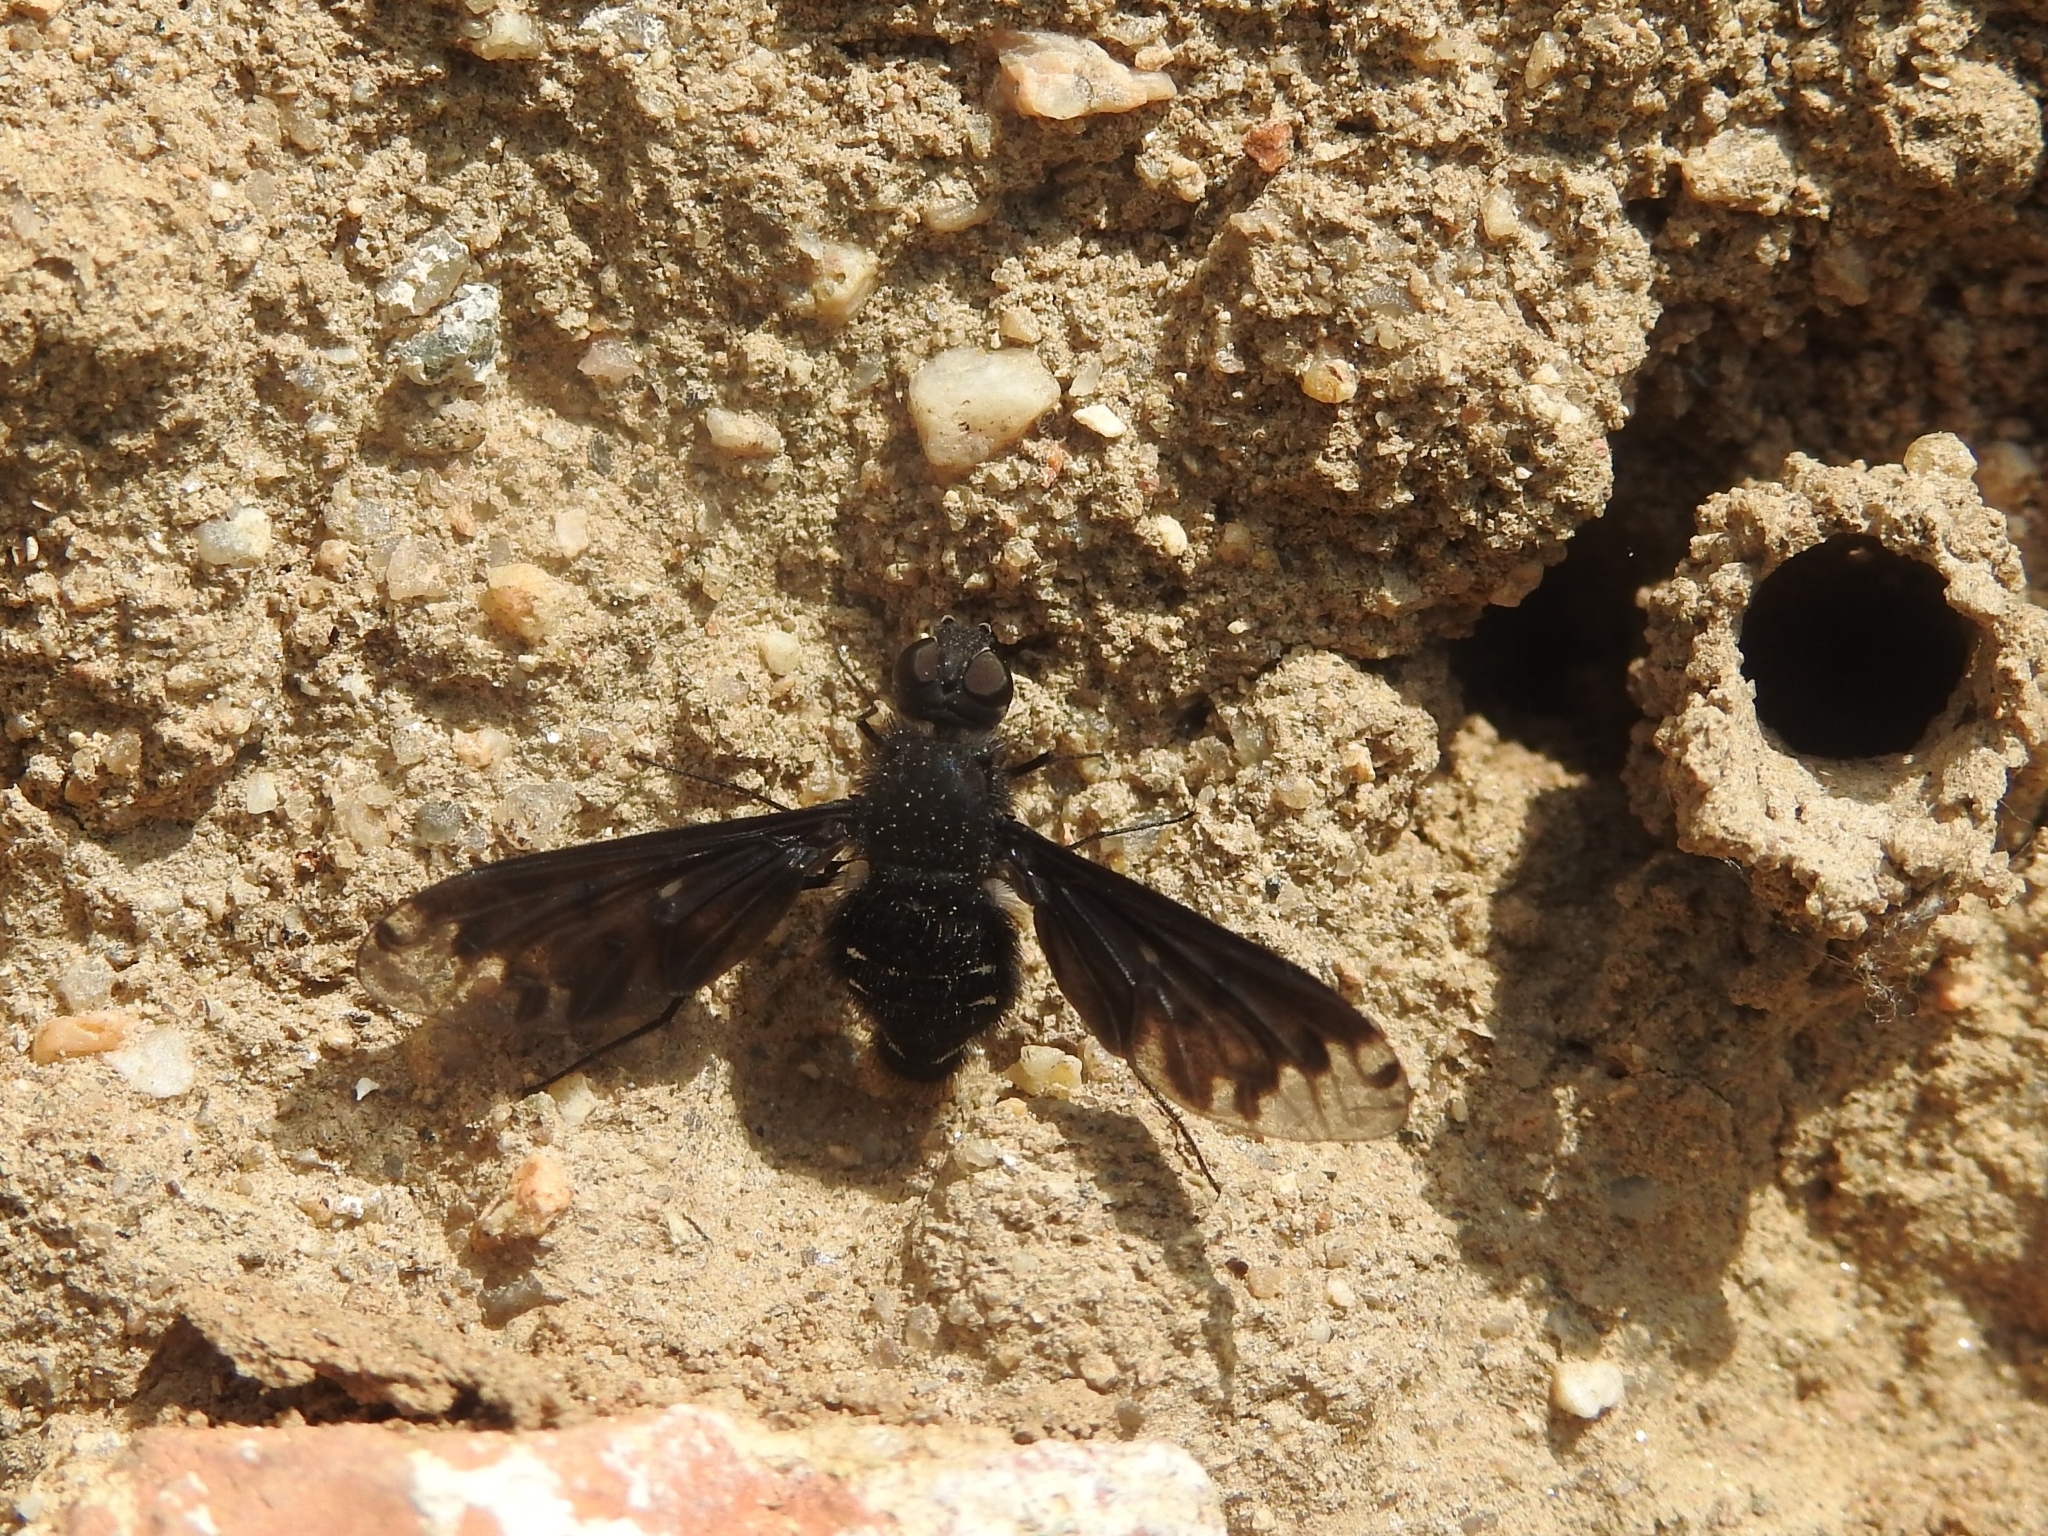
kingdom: Animalia
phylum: Arthropoda
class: Insecta
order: Diptera
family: Bombyliidae
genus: Anthrax
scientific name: Anthrax anthrax
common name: Anthracite bee-fly
